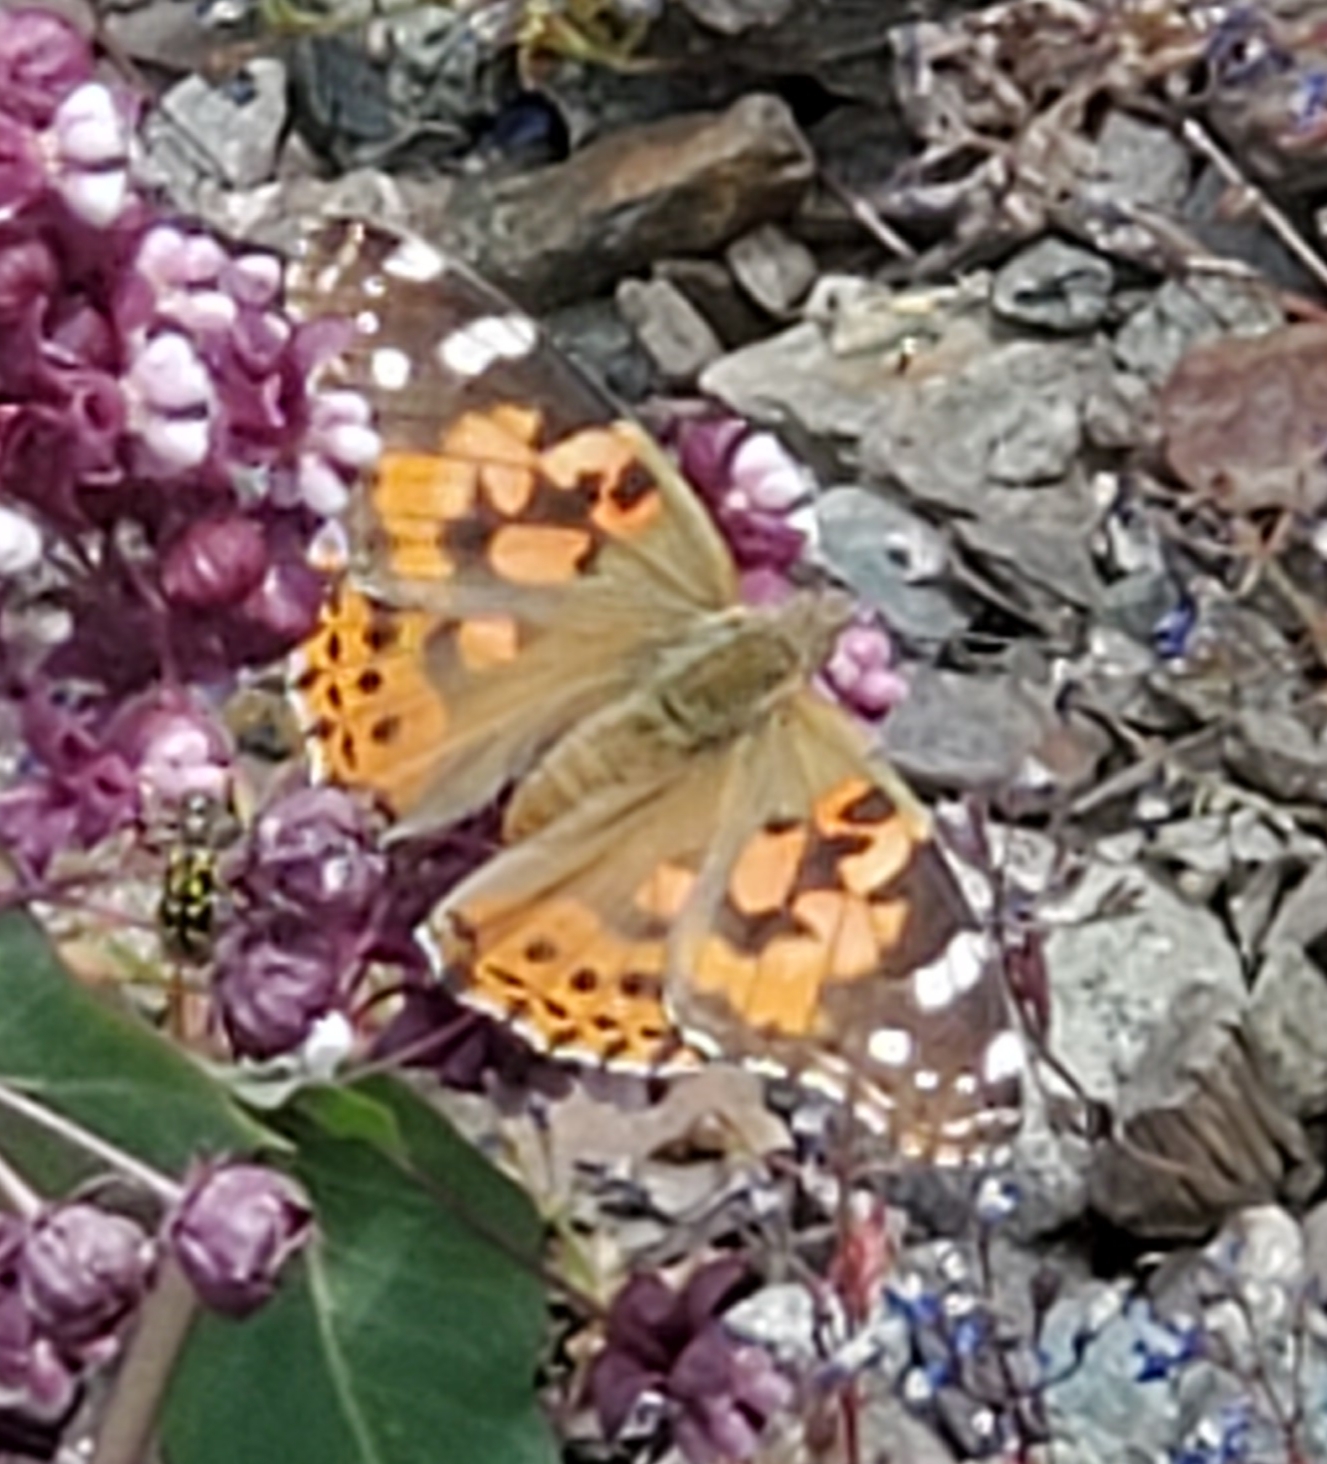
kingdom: Animalia
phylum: Arthropoda
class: Insecta
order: Lepidoptera
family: Nymphalidae
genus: Vanessa
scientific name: Vanessa cardui
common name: Painted lady
